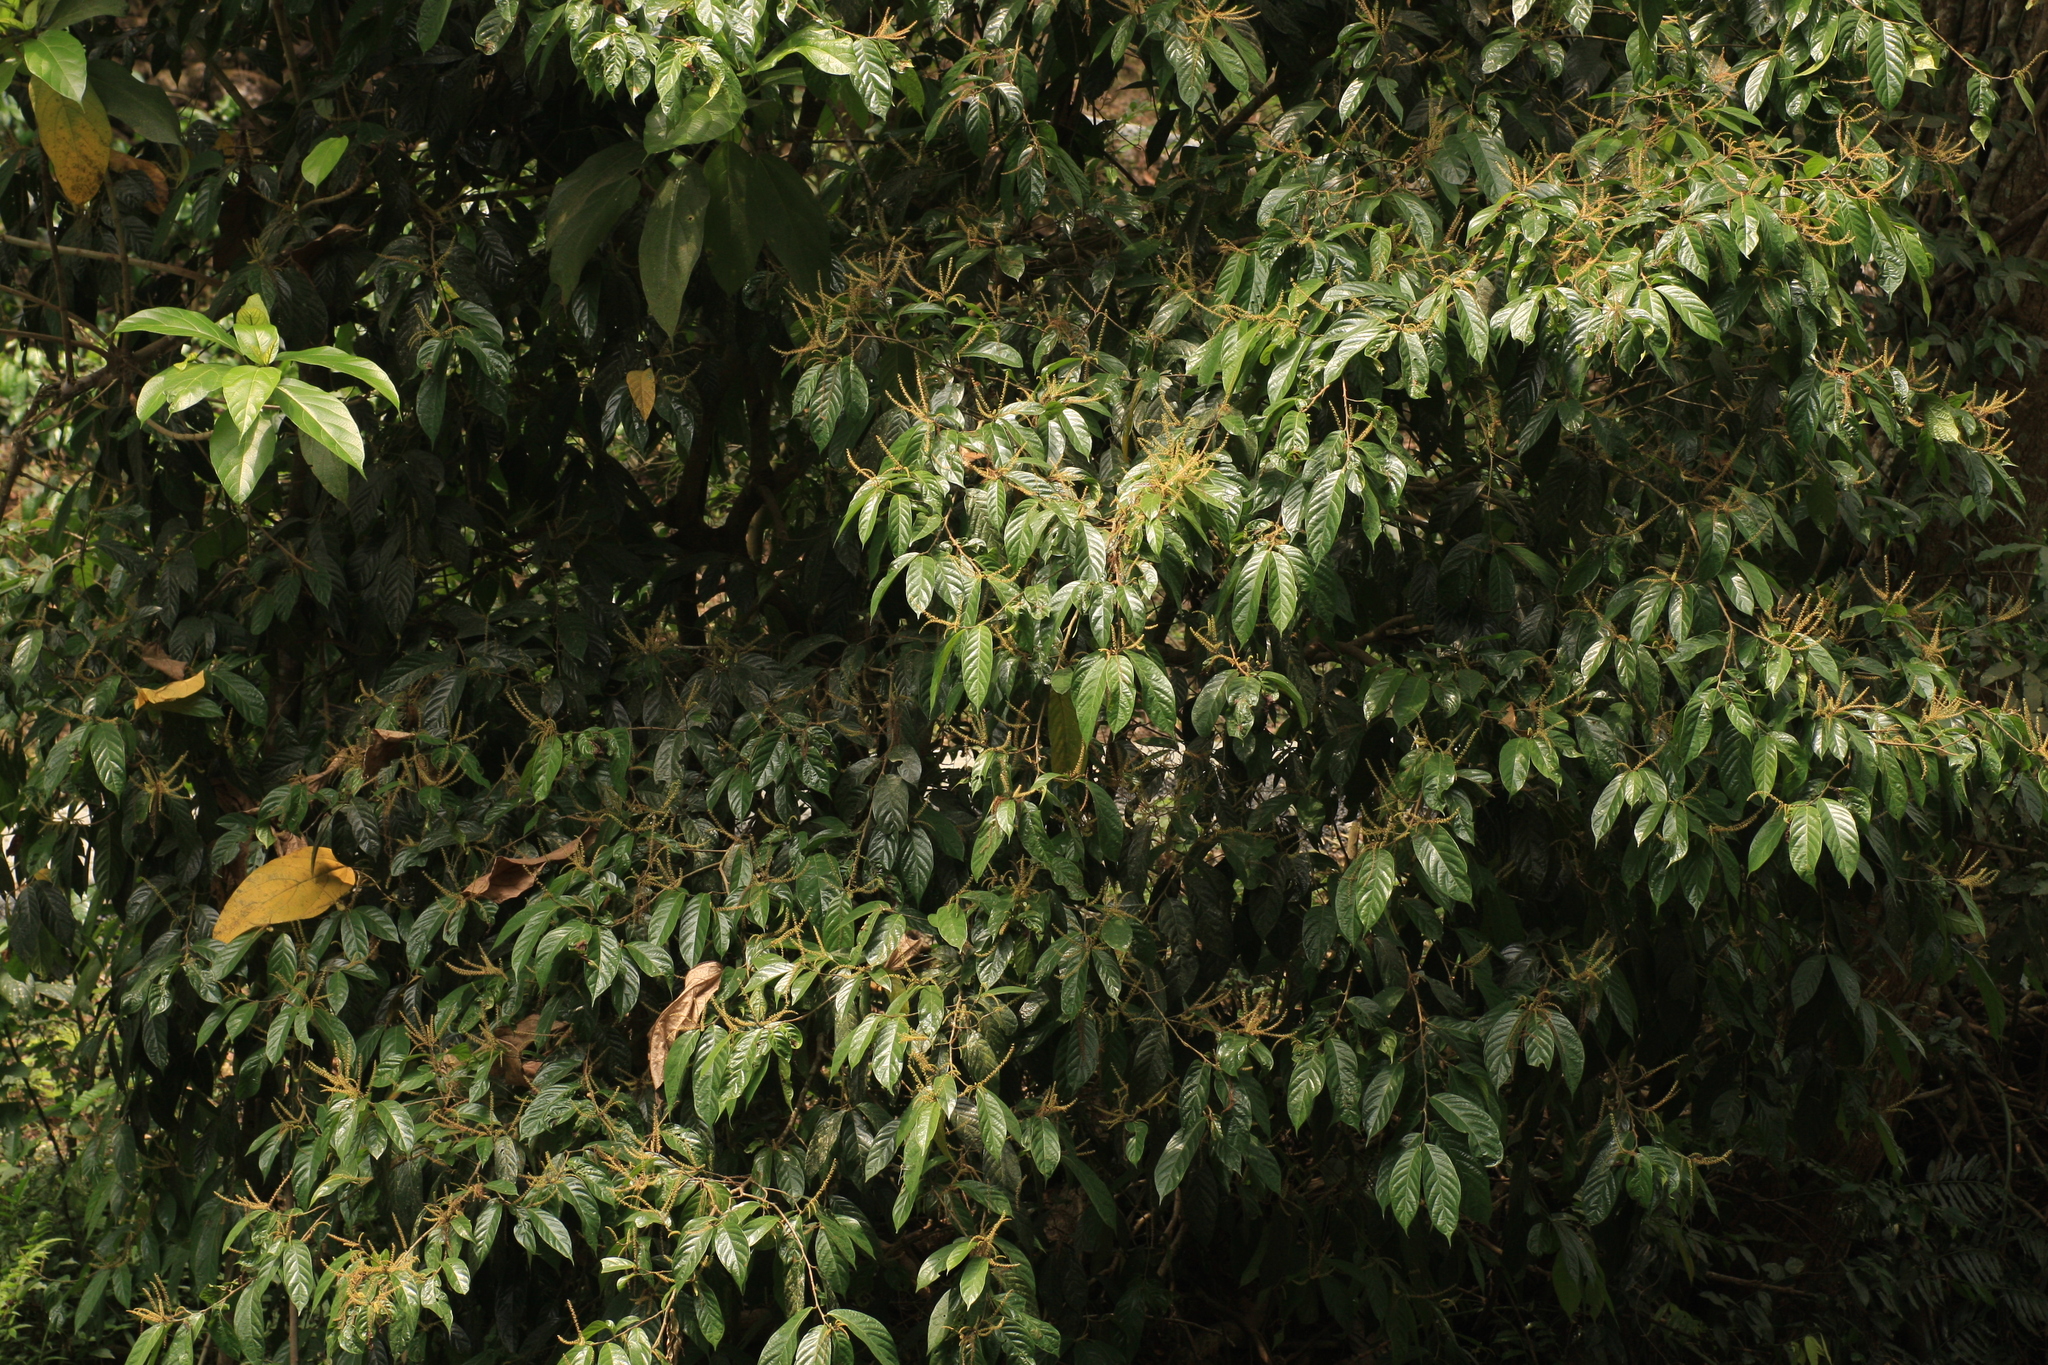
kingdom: Plantae
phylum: Tracheophyta
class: Magnoliopsida
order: Malpighiales
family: Phyllanthaceae
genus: Antidesma
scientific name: Antidesma montanum
